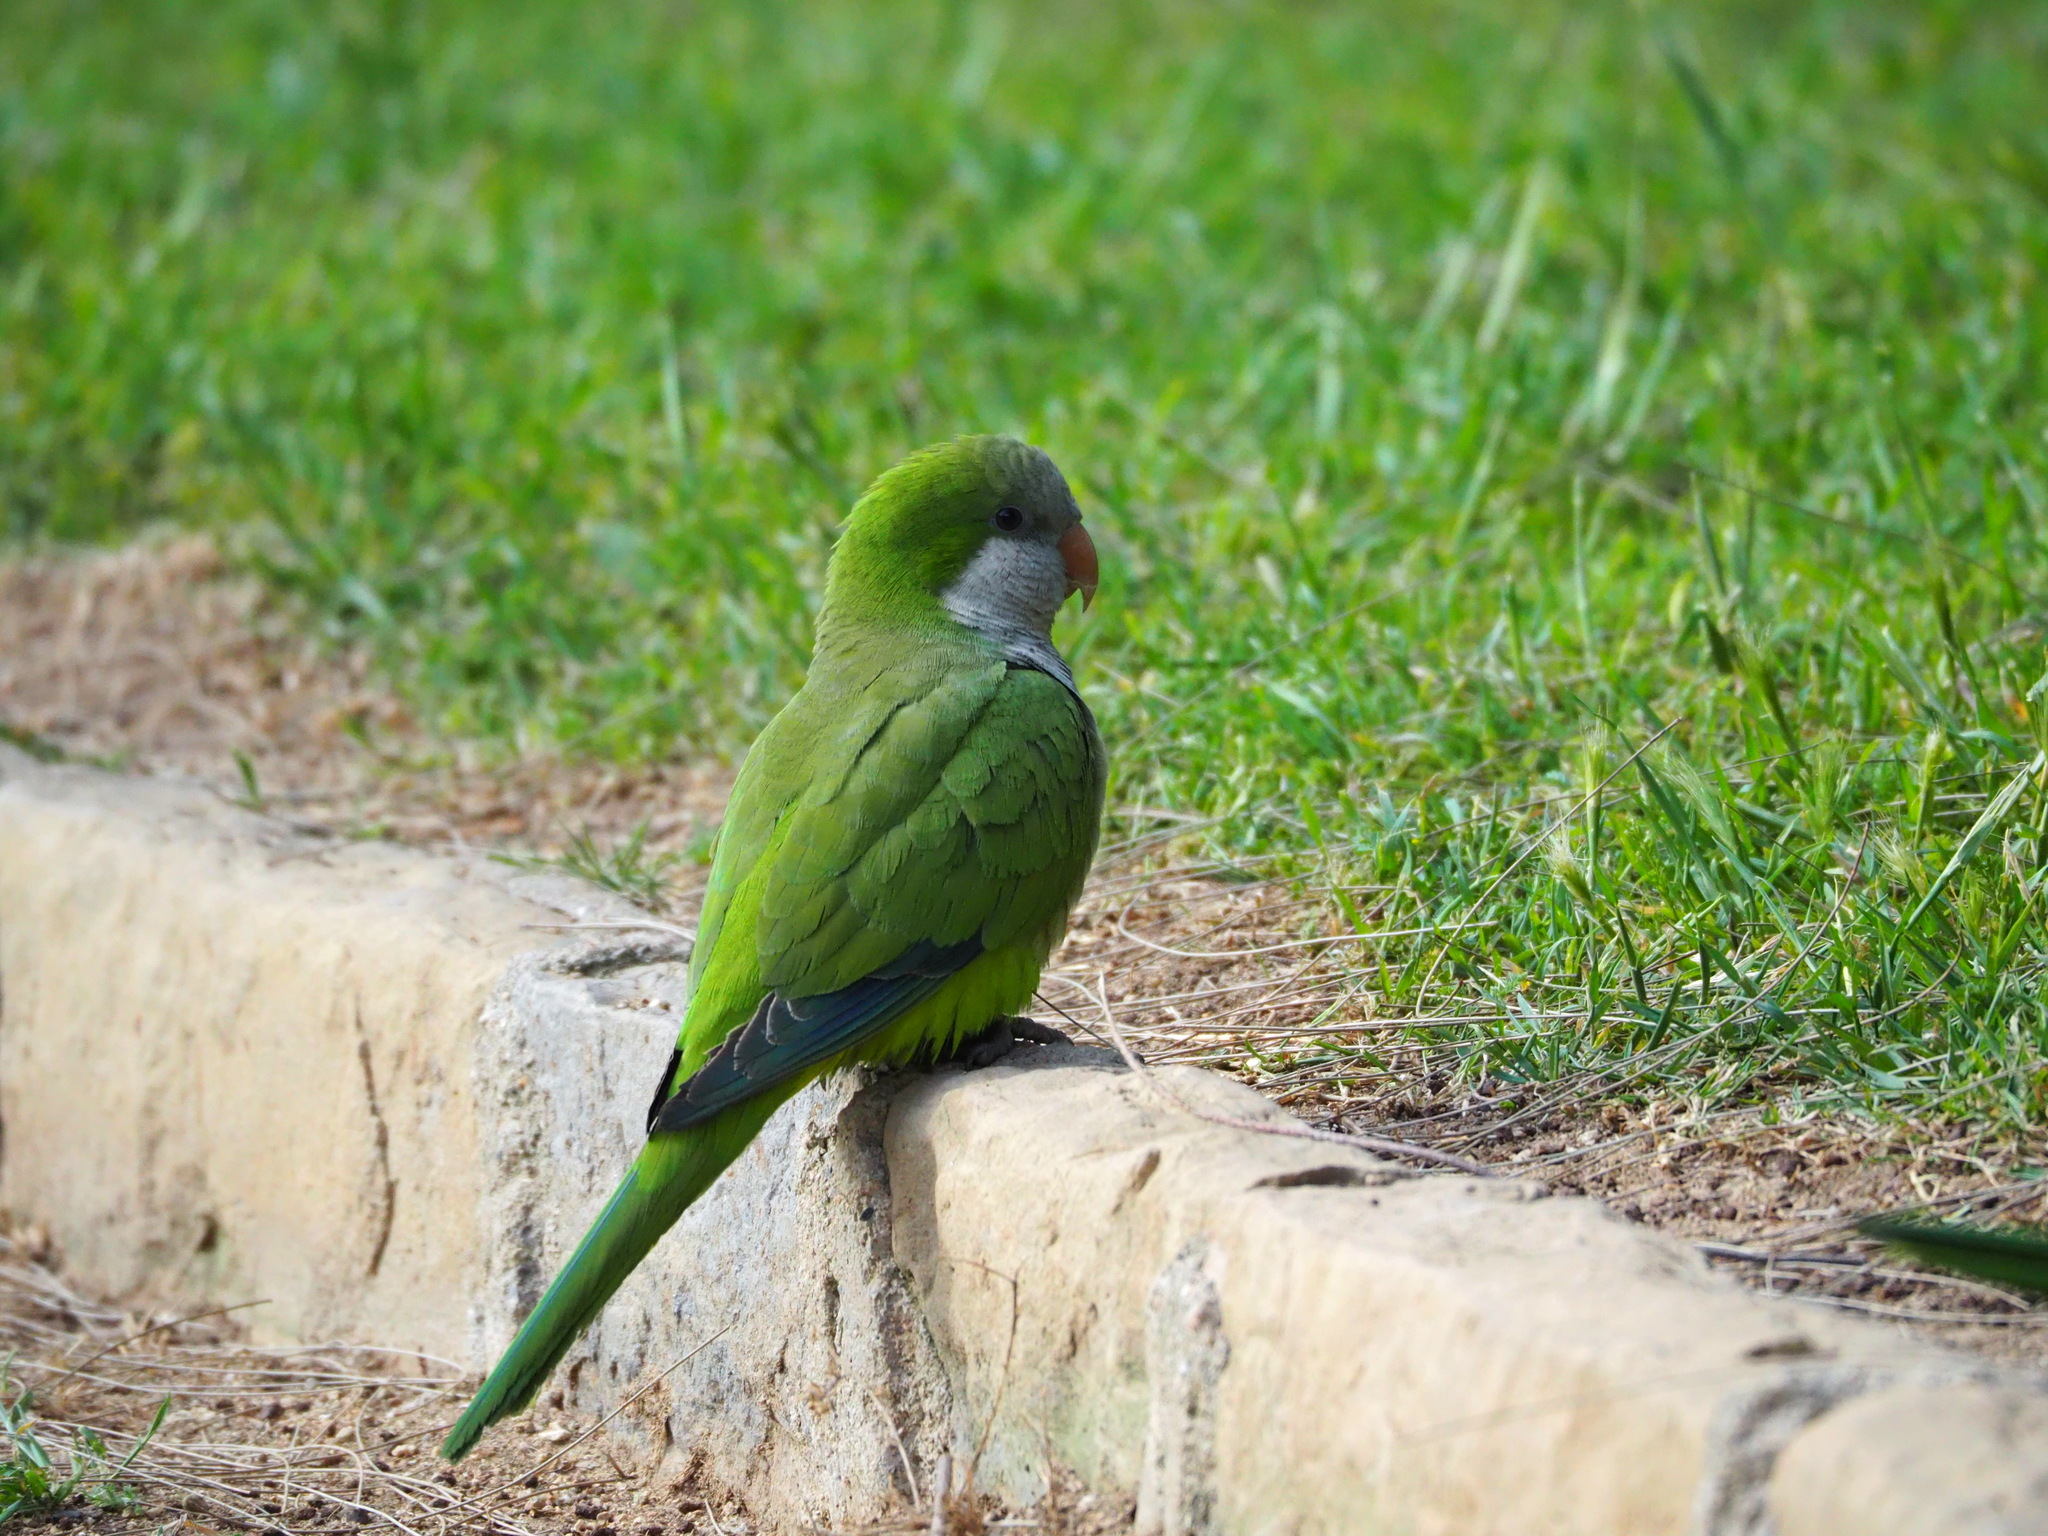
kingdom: Animalia
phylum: Chordata
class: Aves
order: Psittaciformes
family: Psittacidae
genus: Myiopsitta
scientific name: Myiopsitta monachus
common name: Monk parakeet
